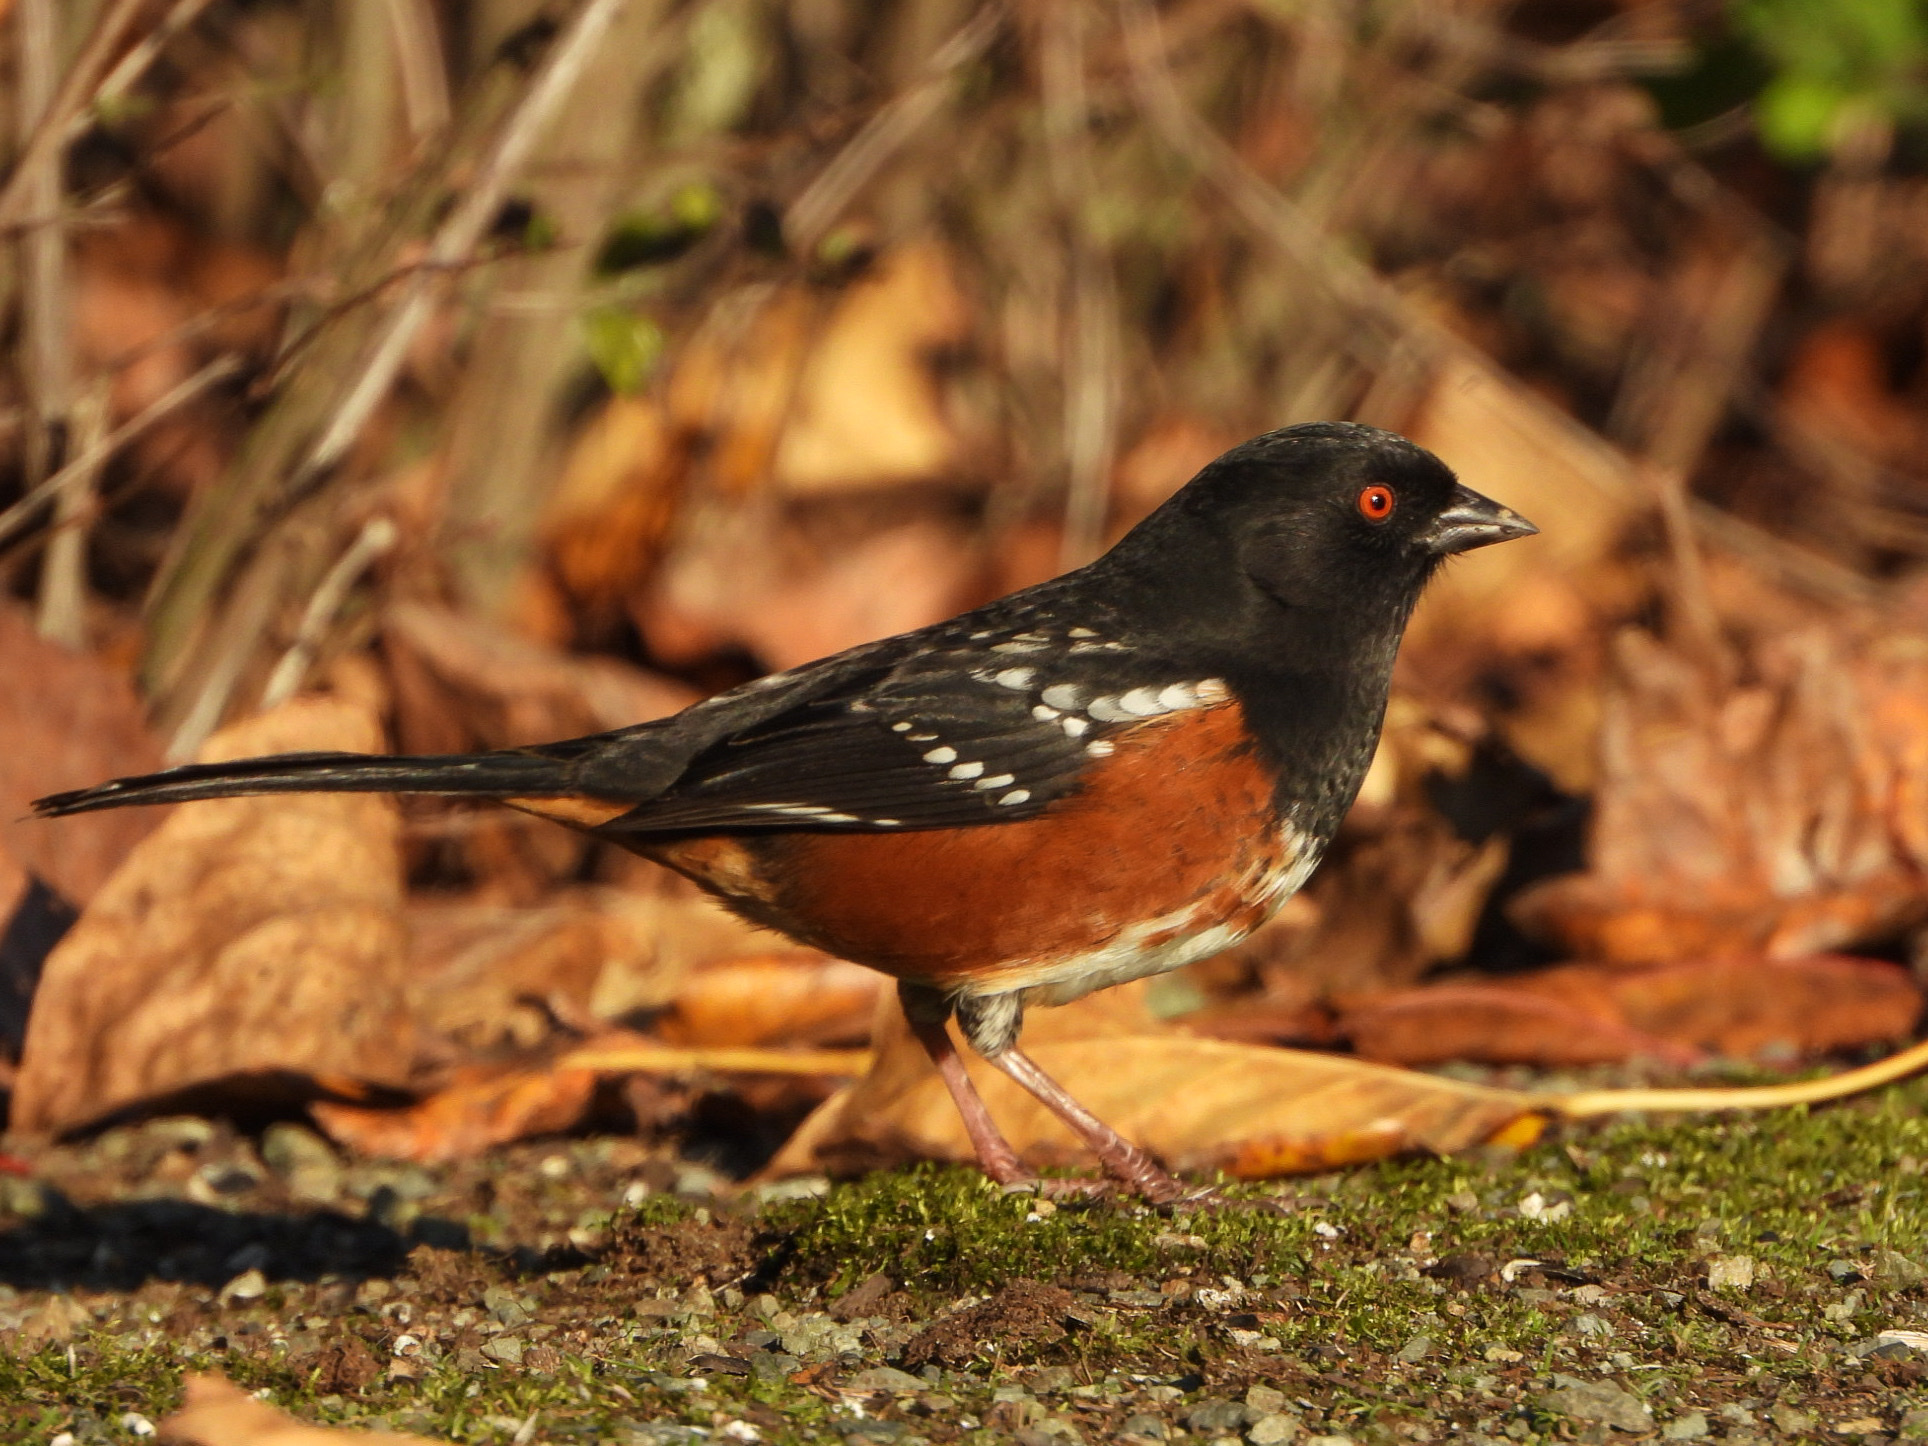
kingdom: Animalia
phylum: Chordata
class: Aves
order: Passeriformes
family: Passerellidae
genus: Pipilo
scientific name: Pipilo maculatus
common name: Spotted towhee
